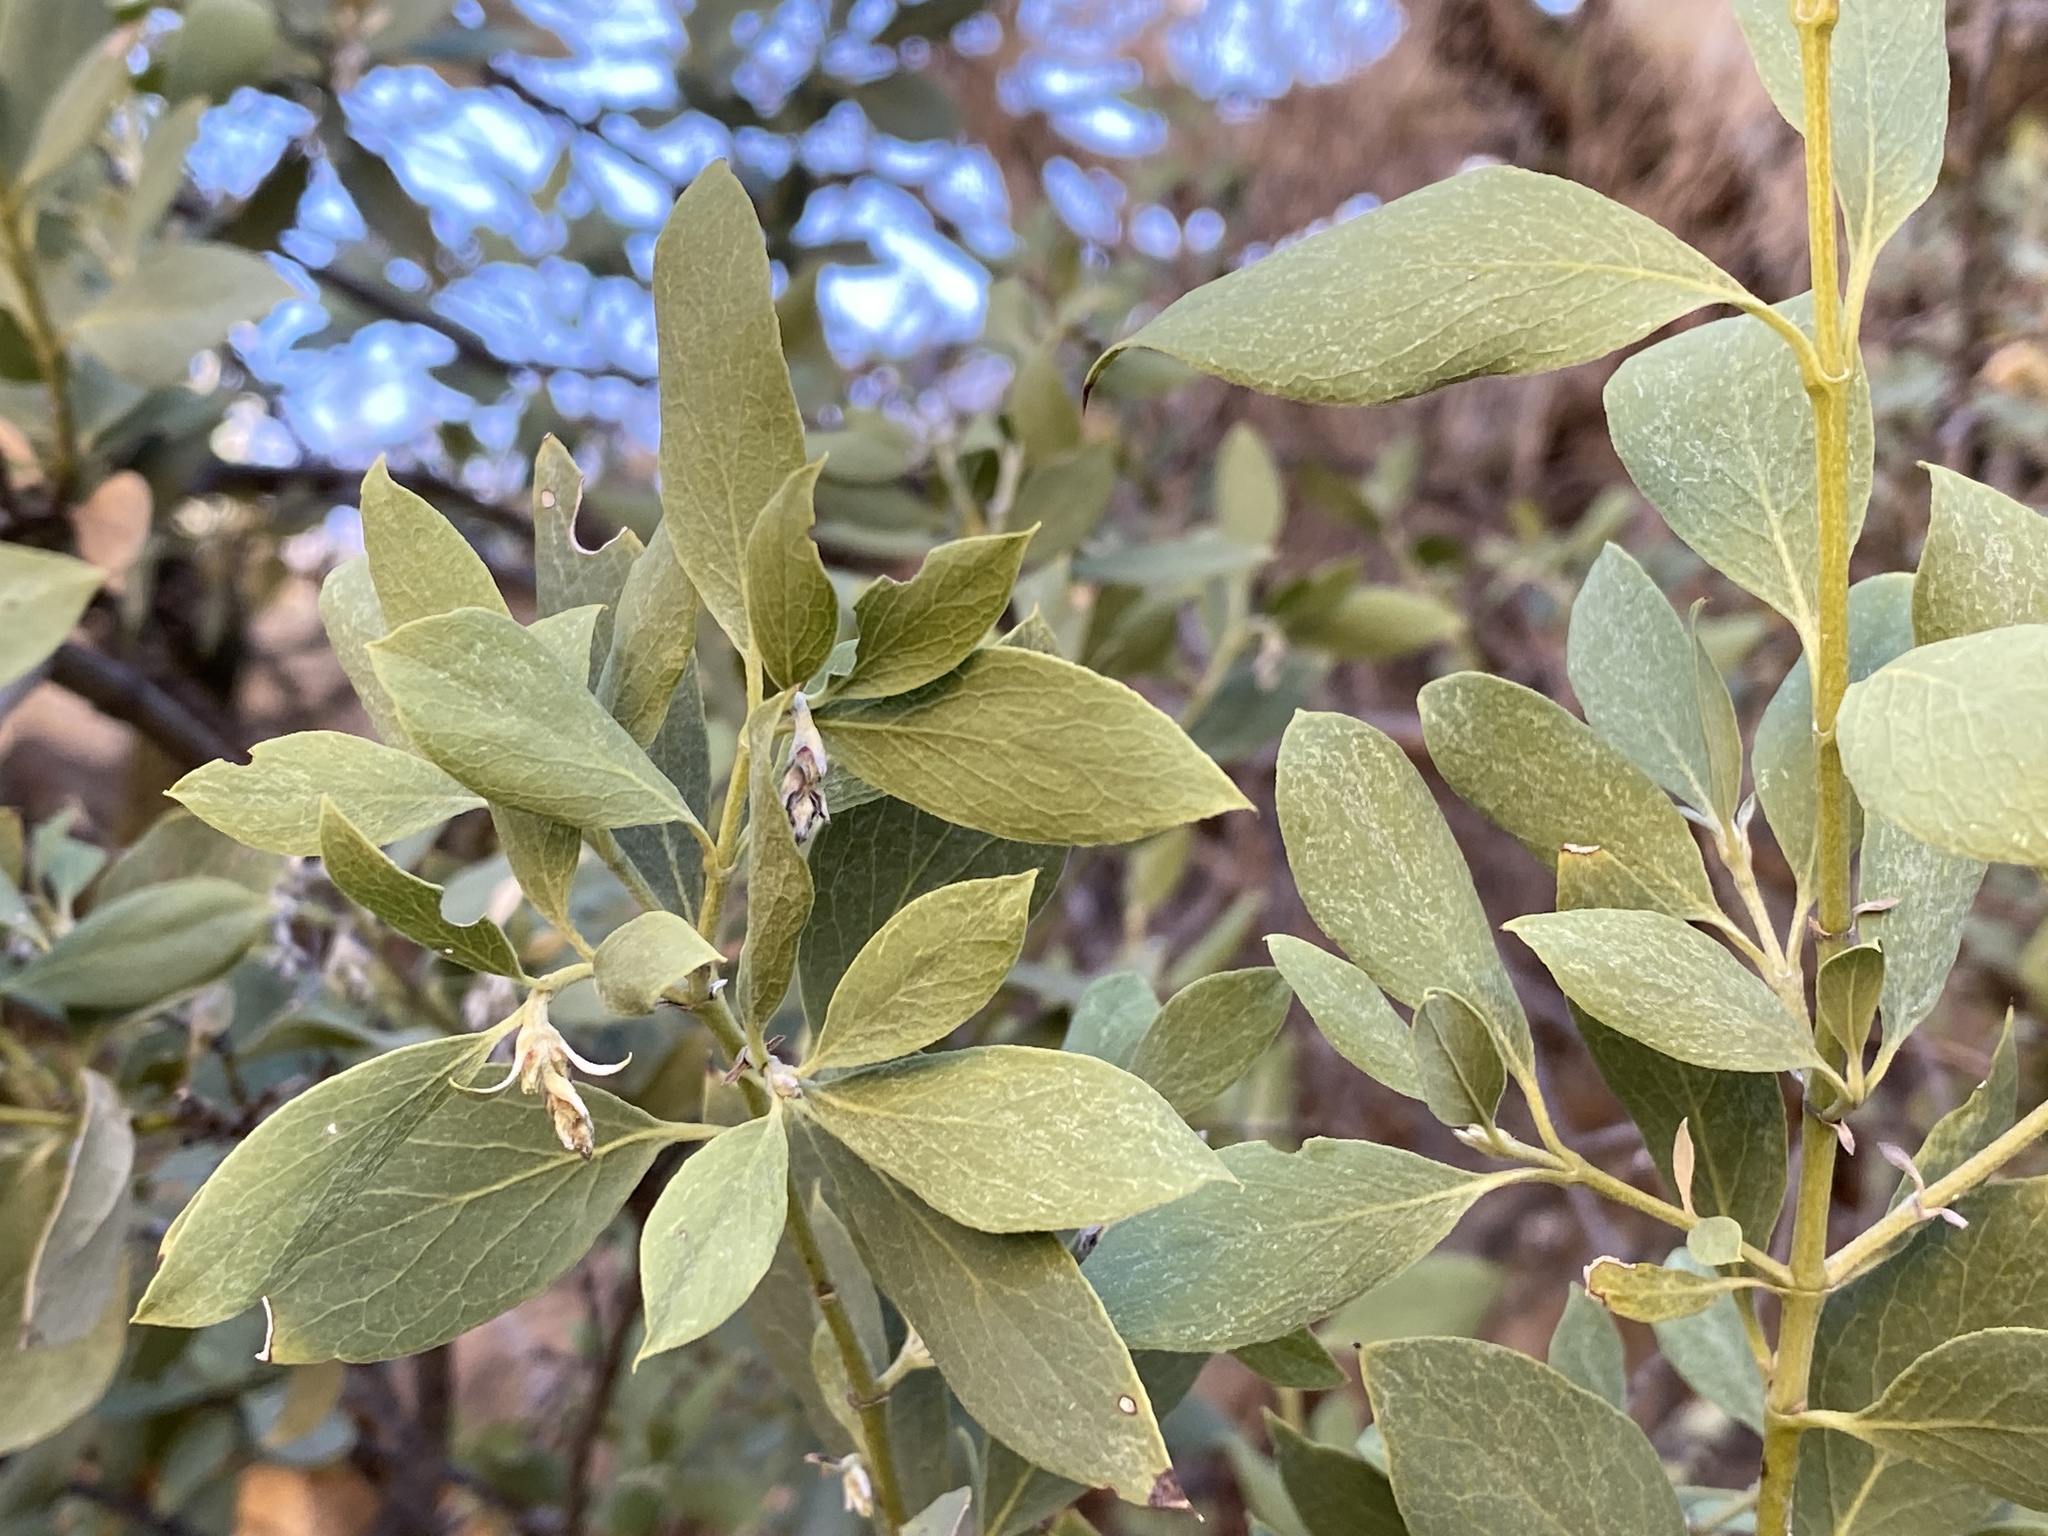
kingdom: Plantae
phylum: Tracheophyta
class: Magnoliopsida
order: Garryales
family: Garryaceae
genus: Garrya
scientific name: Garrya wrightii
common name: Wright's silktassel
